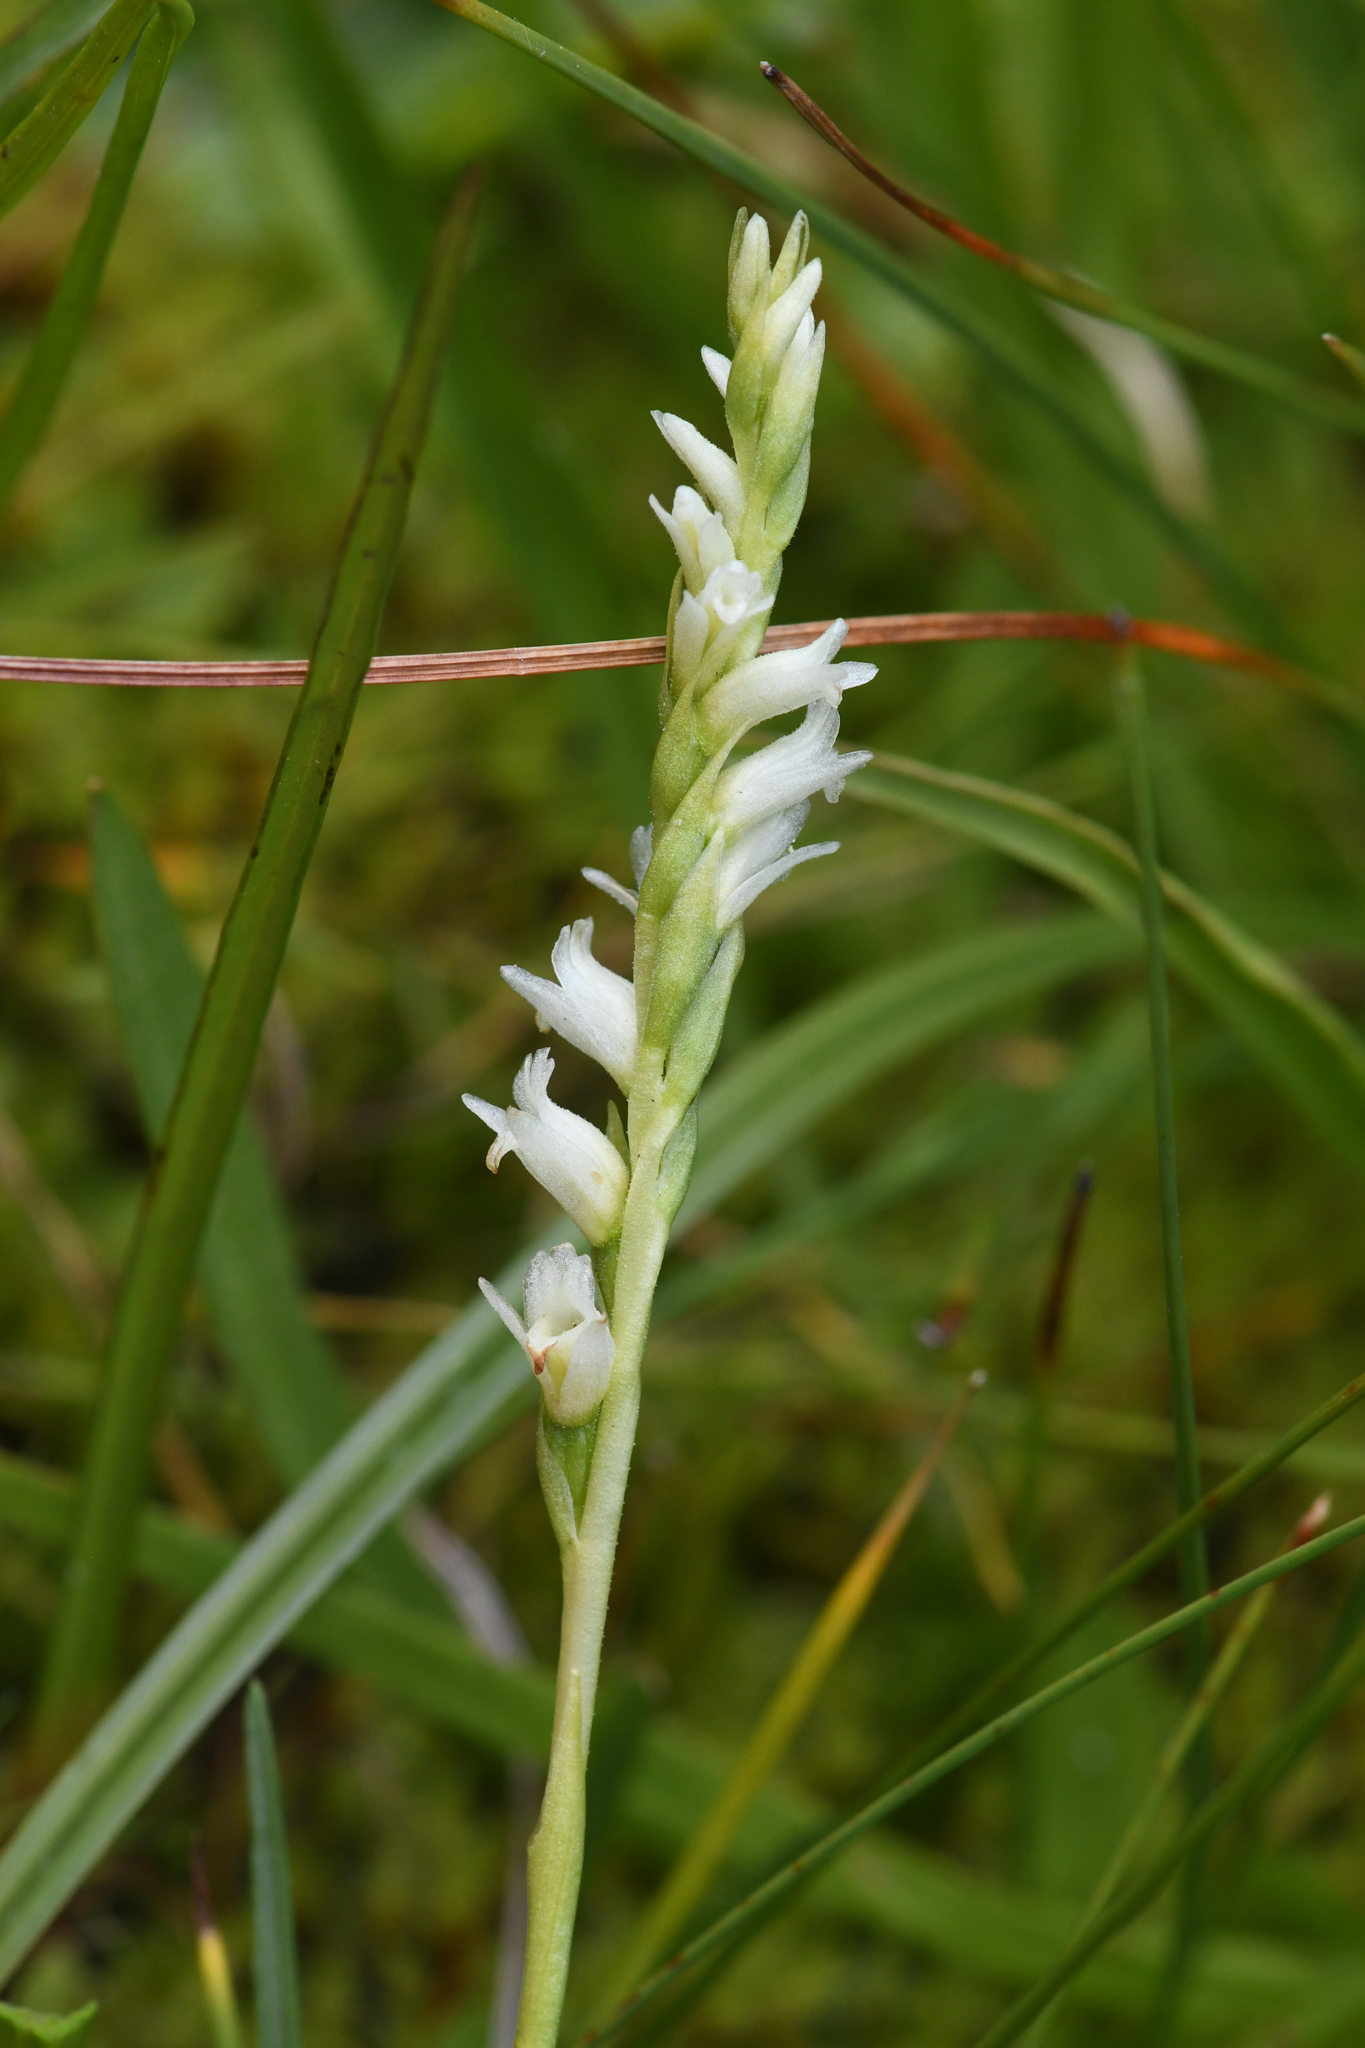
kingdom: Plantae
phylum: Tracheophyta
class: Liliopsida
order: Asparagales
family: Orchidaceae
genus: Spiranthes
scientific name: Spiranthes perexilis
